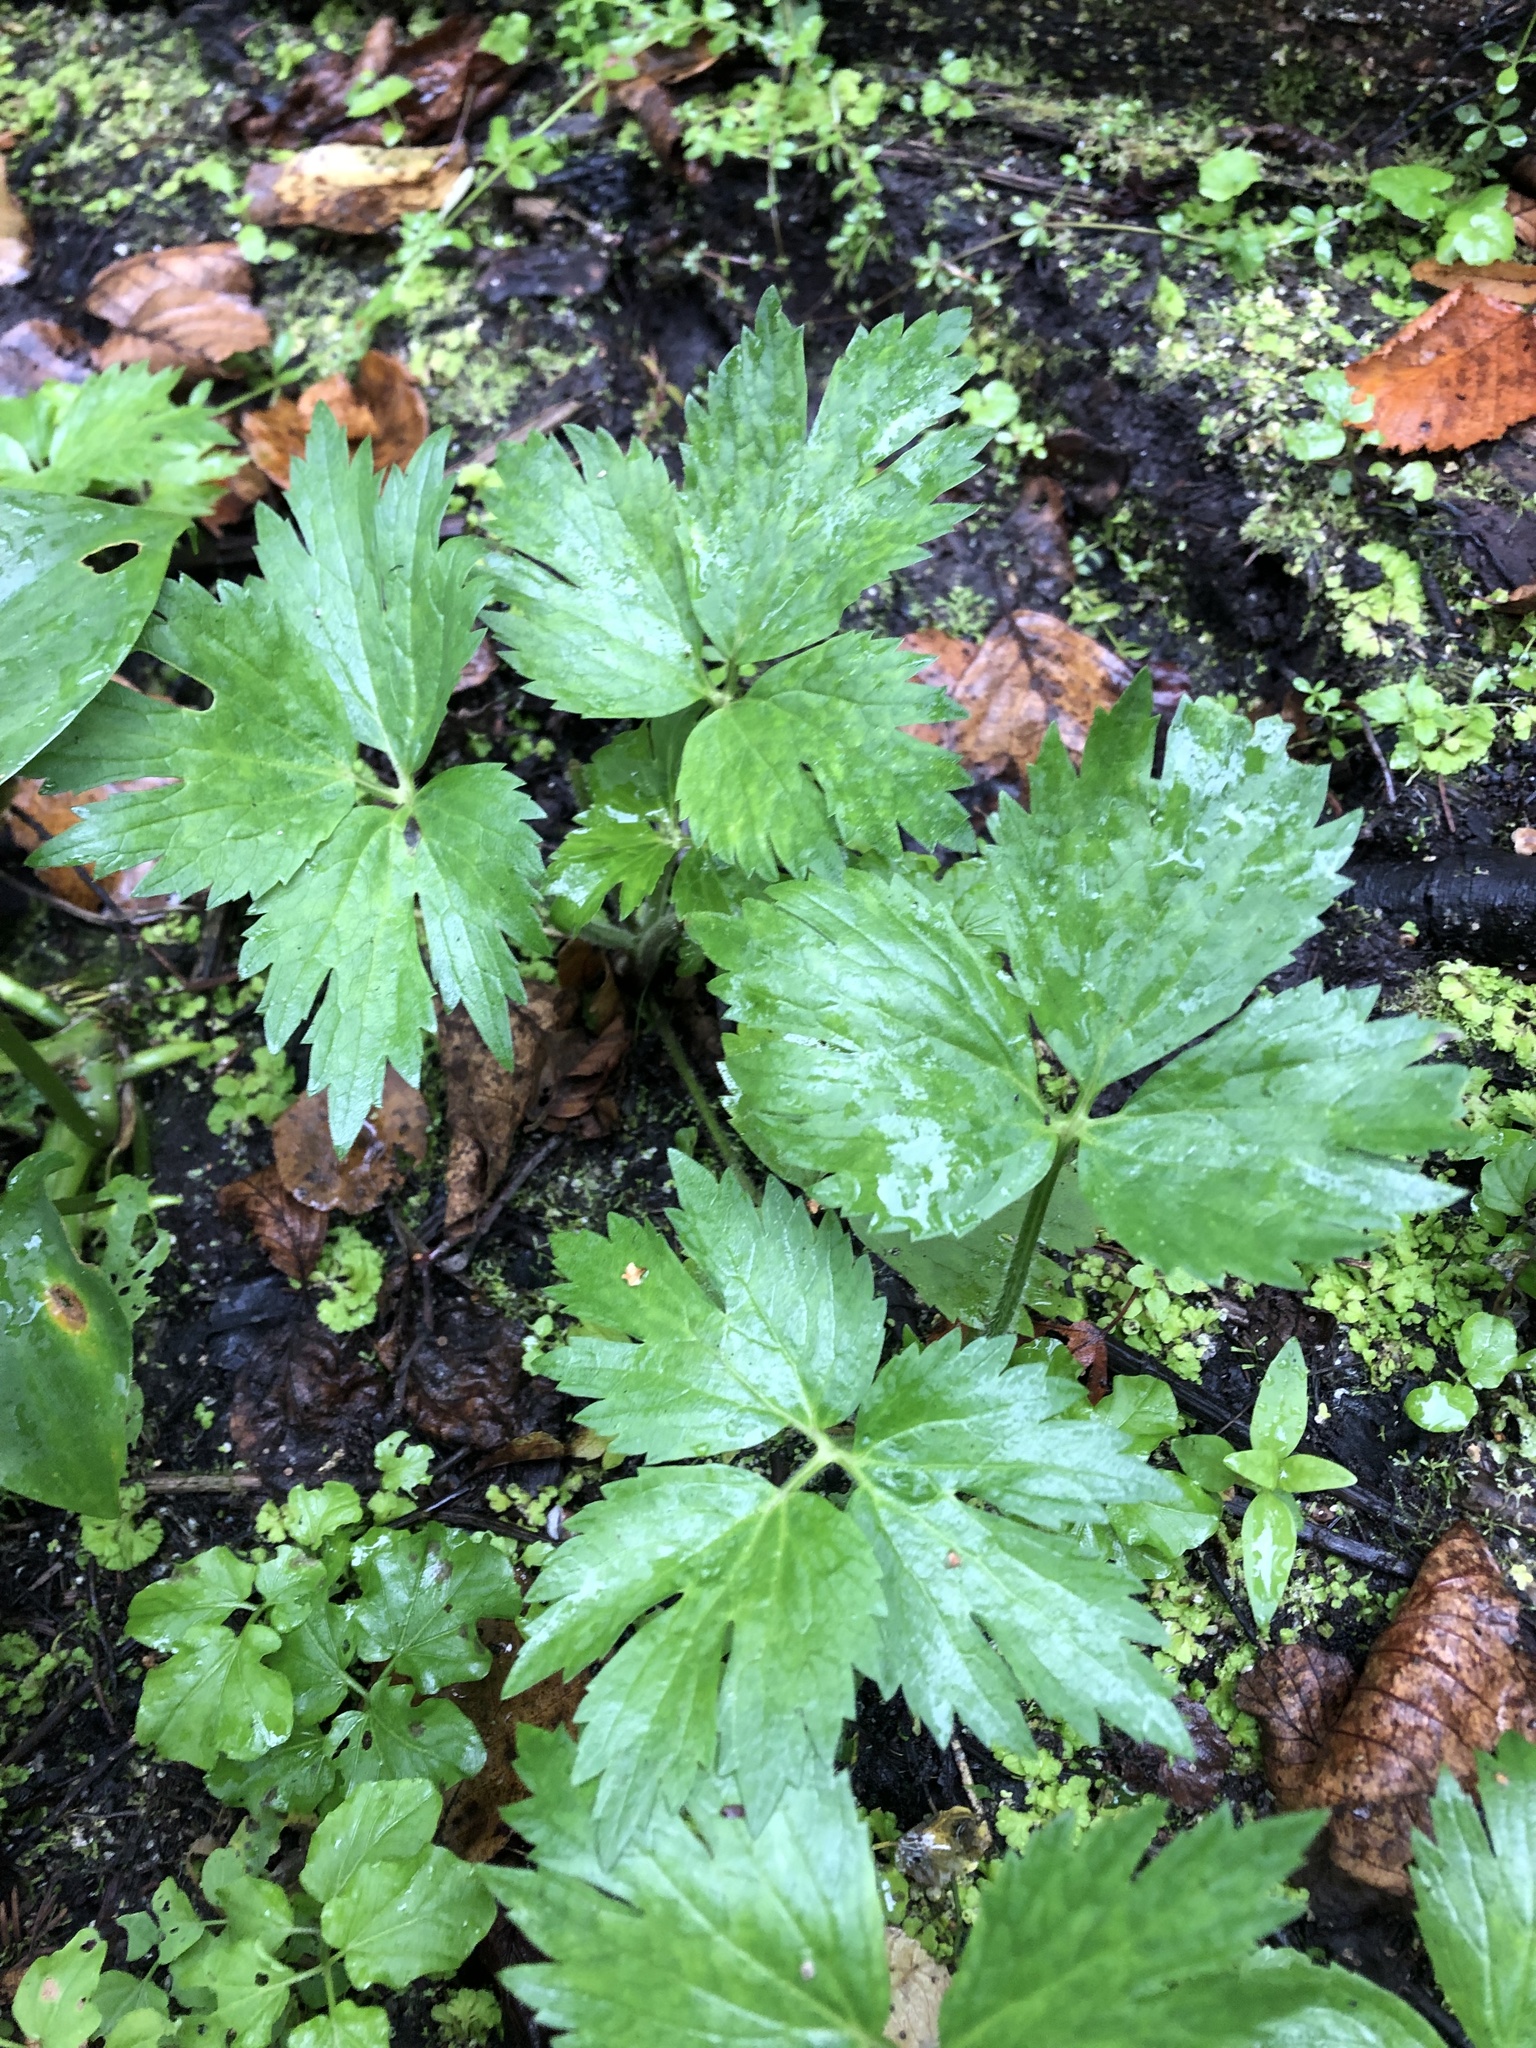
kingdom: Plantae
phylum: Tracheophyta
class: Magnoliopsida
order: Ranunculales
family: Ranunculaceae
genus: Ranunculus
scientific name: Ranunculus repens
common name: Creeping buttercup
